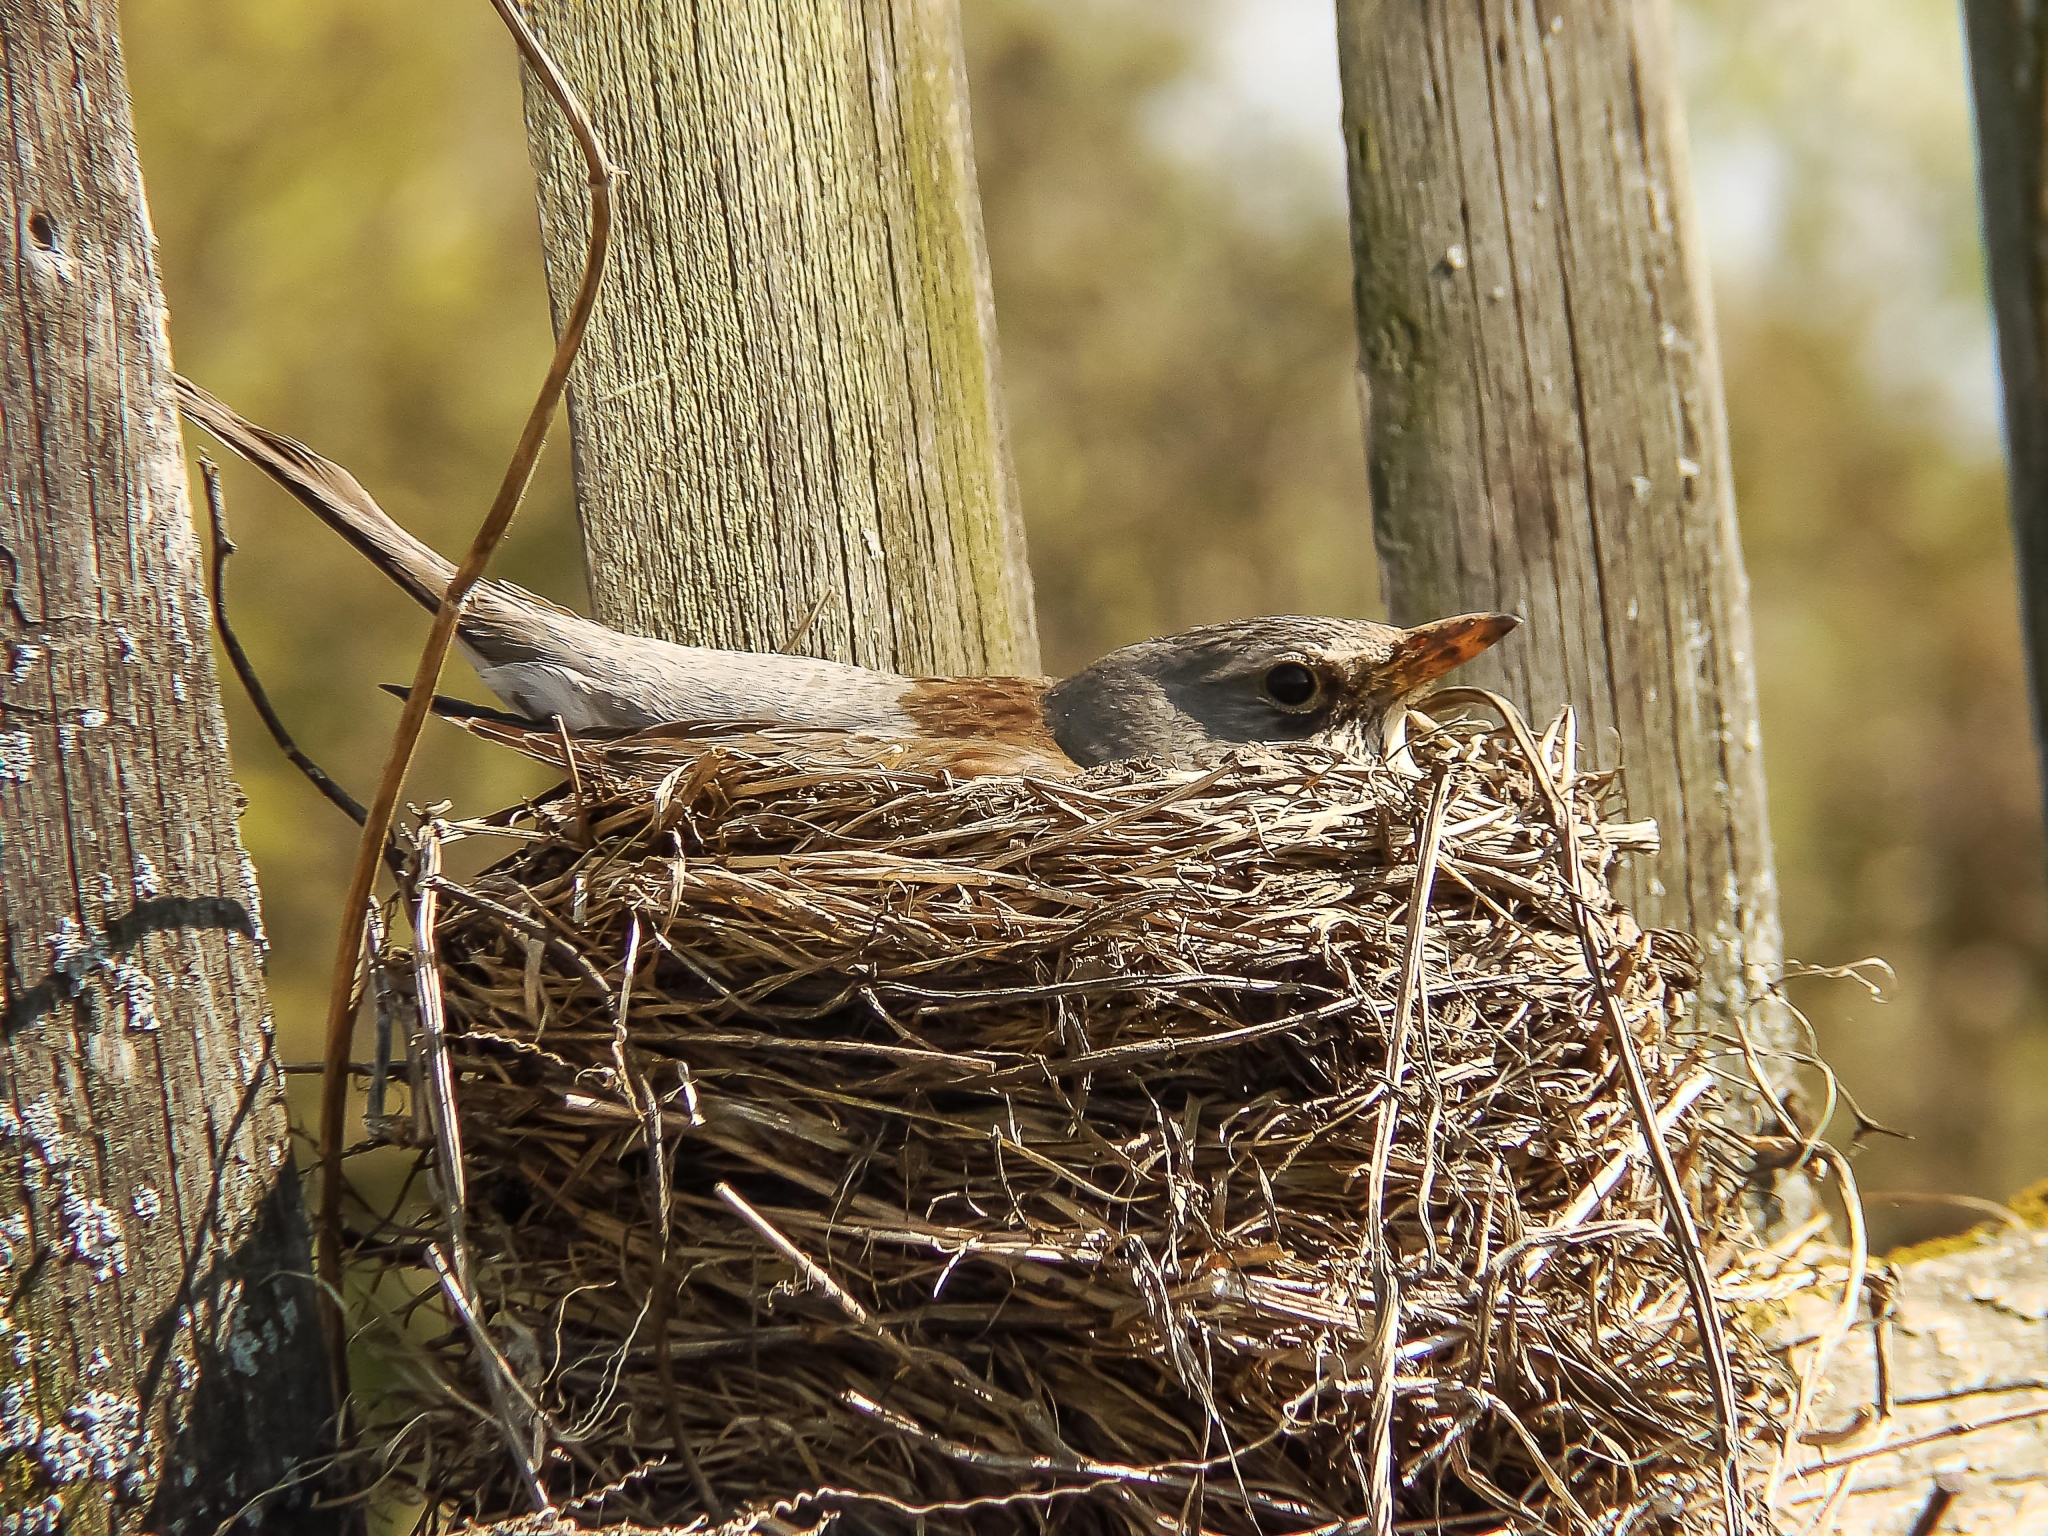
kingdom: Animalia
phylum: Chordata
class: Aves
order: Passeriformes
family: Turdidae
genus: Turdus
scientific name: Turdus pilaris
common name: Fieldfare
